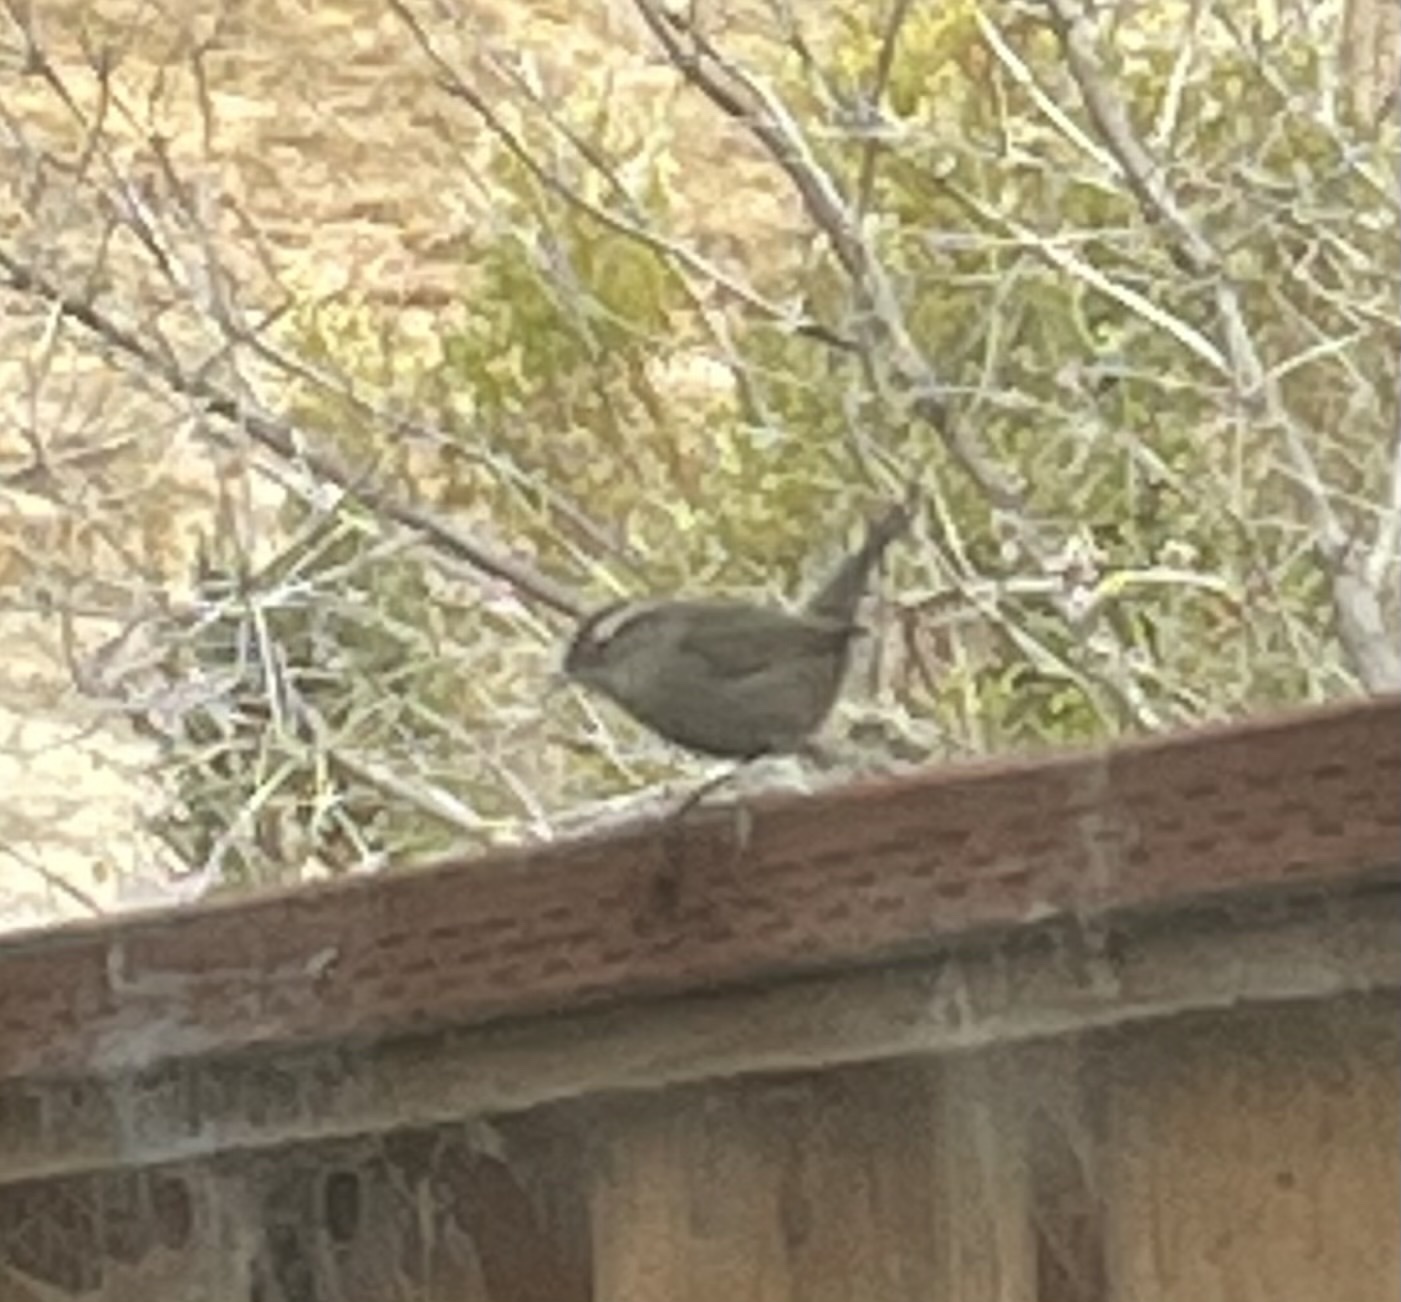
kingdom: Animalia
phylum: Chordata
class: Aves
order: Passeriformes
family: Troglodytidae
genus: Thryomanes
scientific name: Thryomanes bewickii
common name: Bewick's wren
